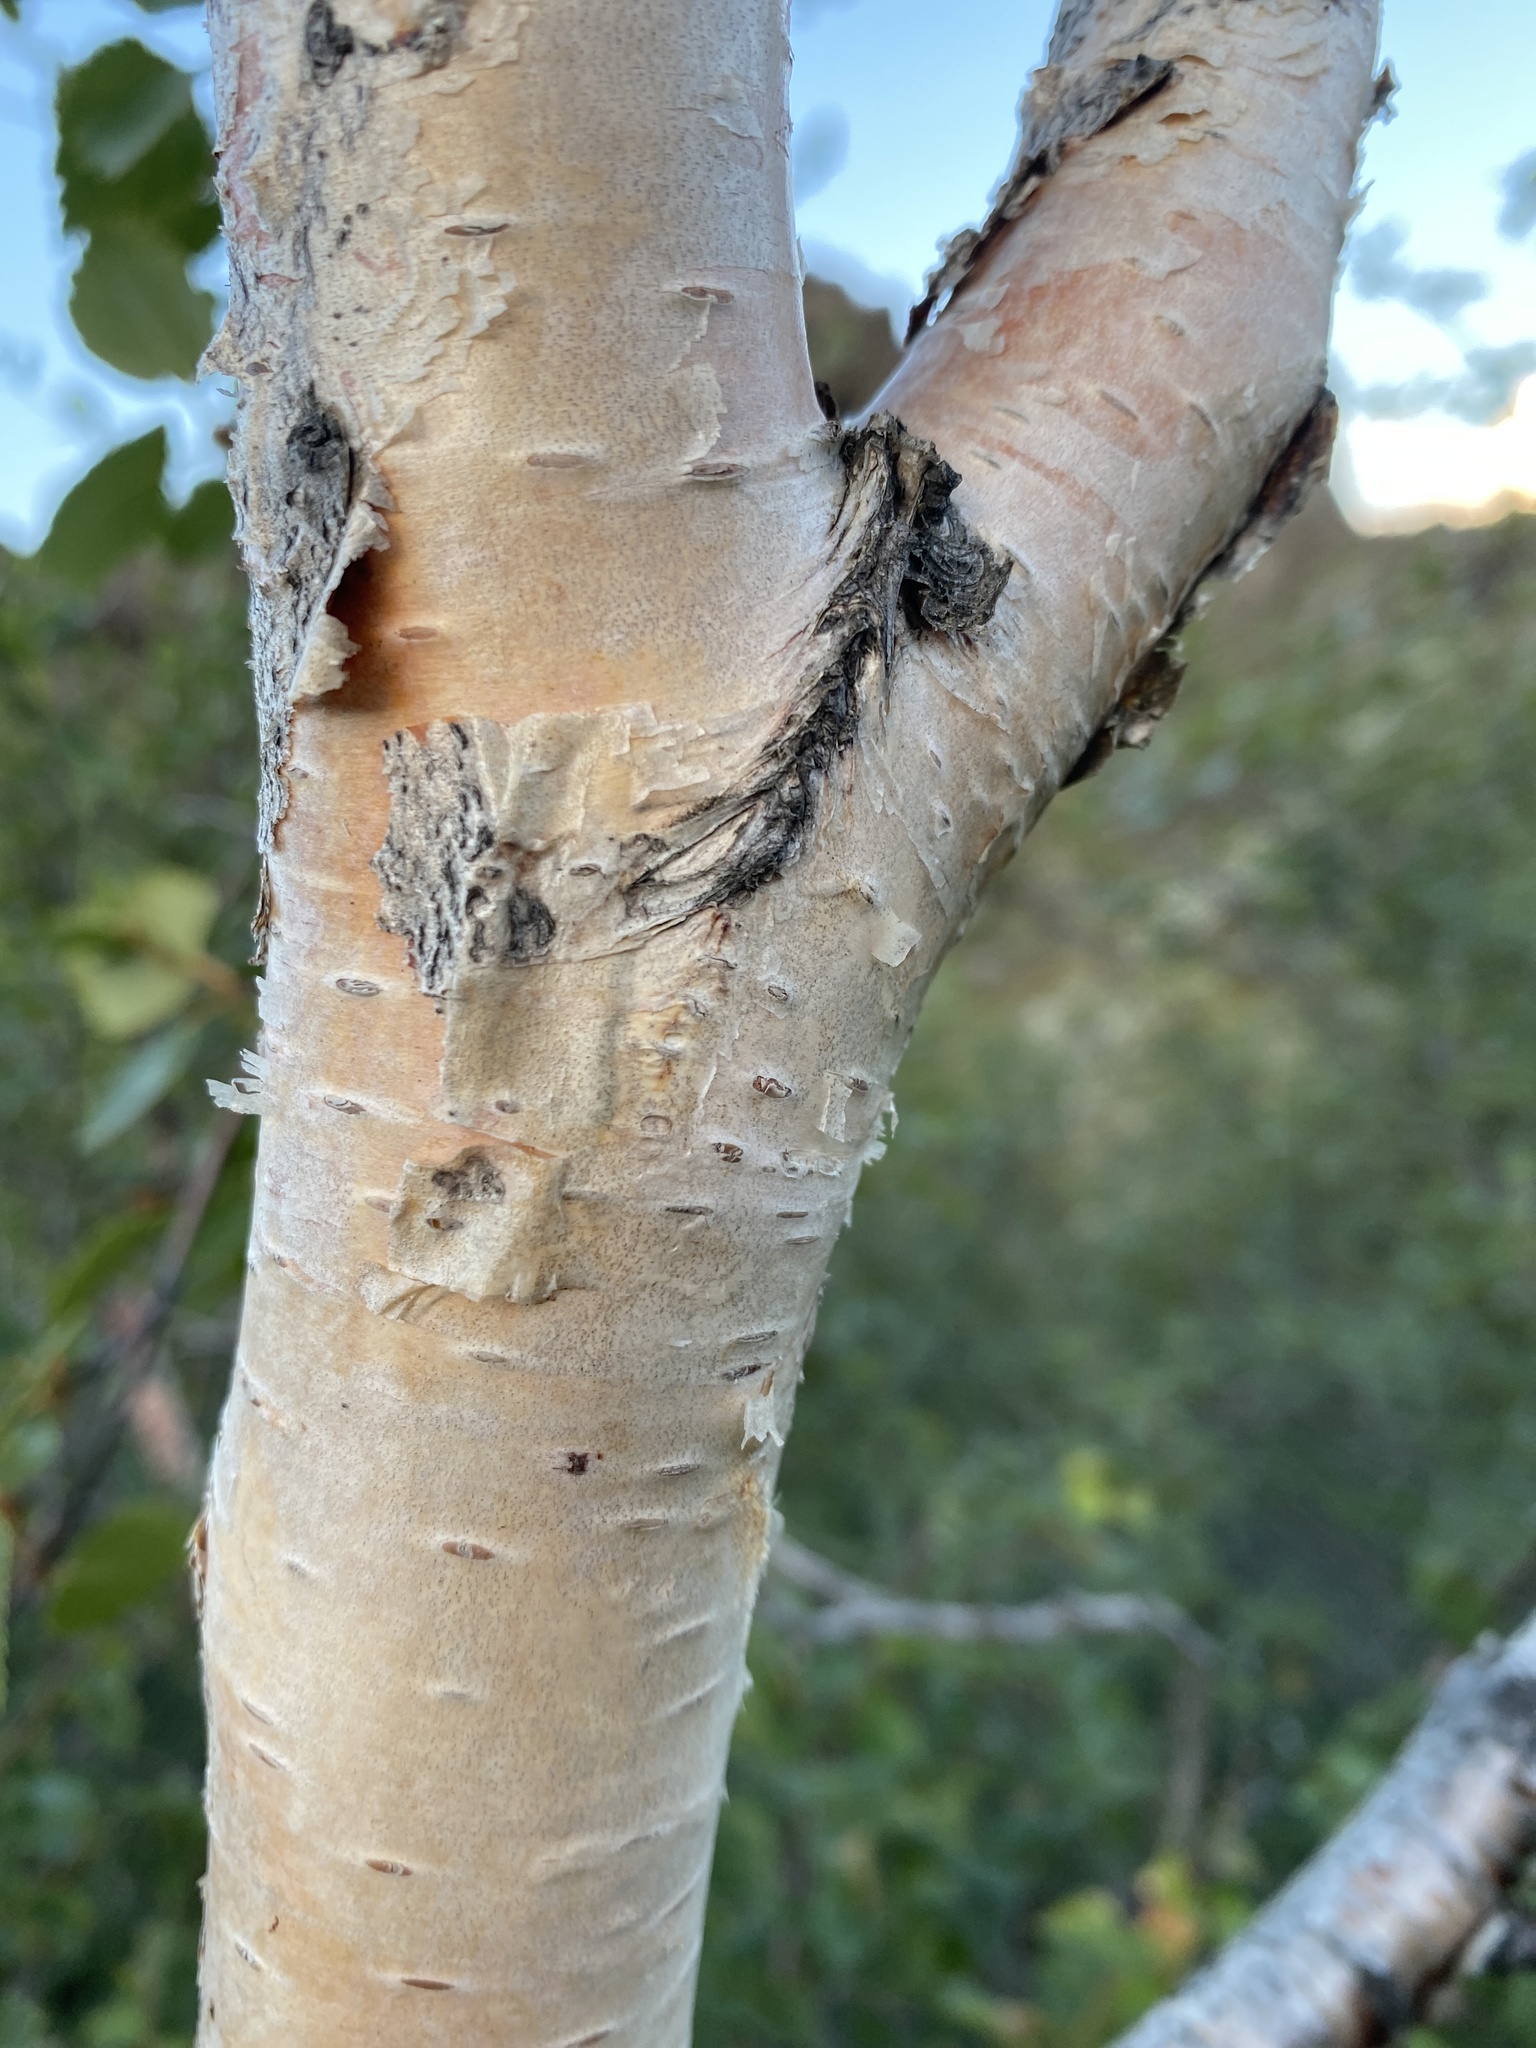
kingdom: Plantae
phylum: Tracheophyta
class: Magnoliopsida
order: Fagales
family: Betulaceae
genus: Betula
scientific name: Betula pubescens
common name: Downy birch
